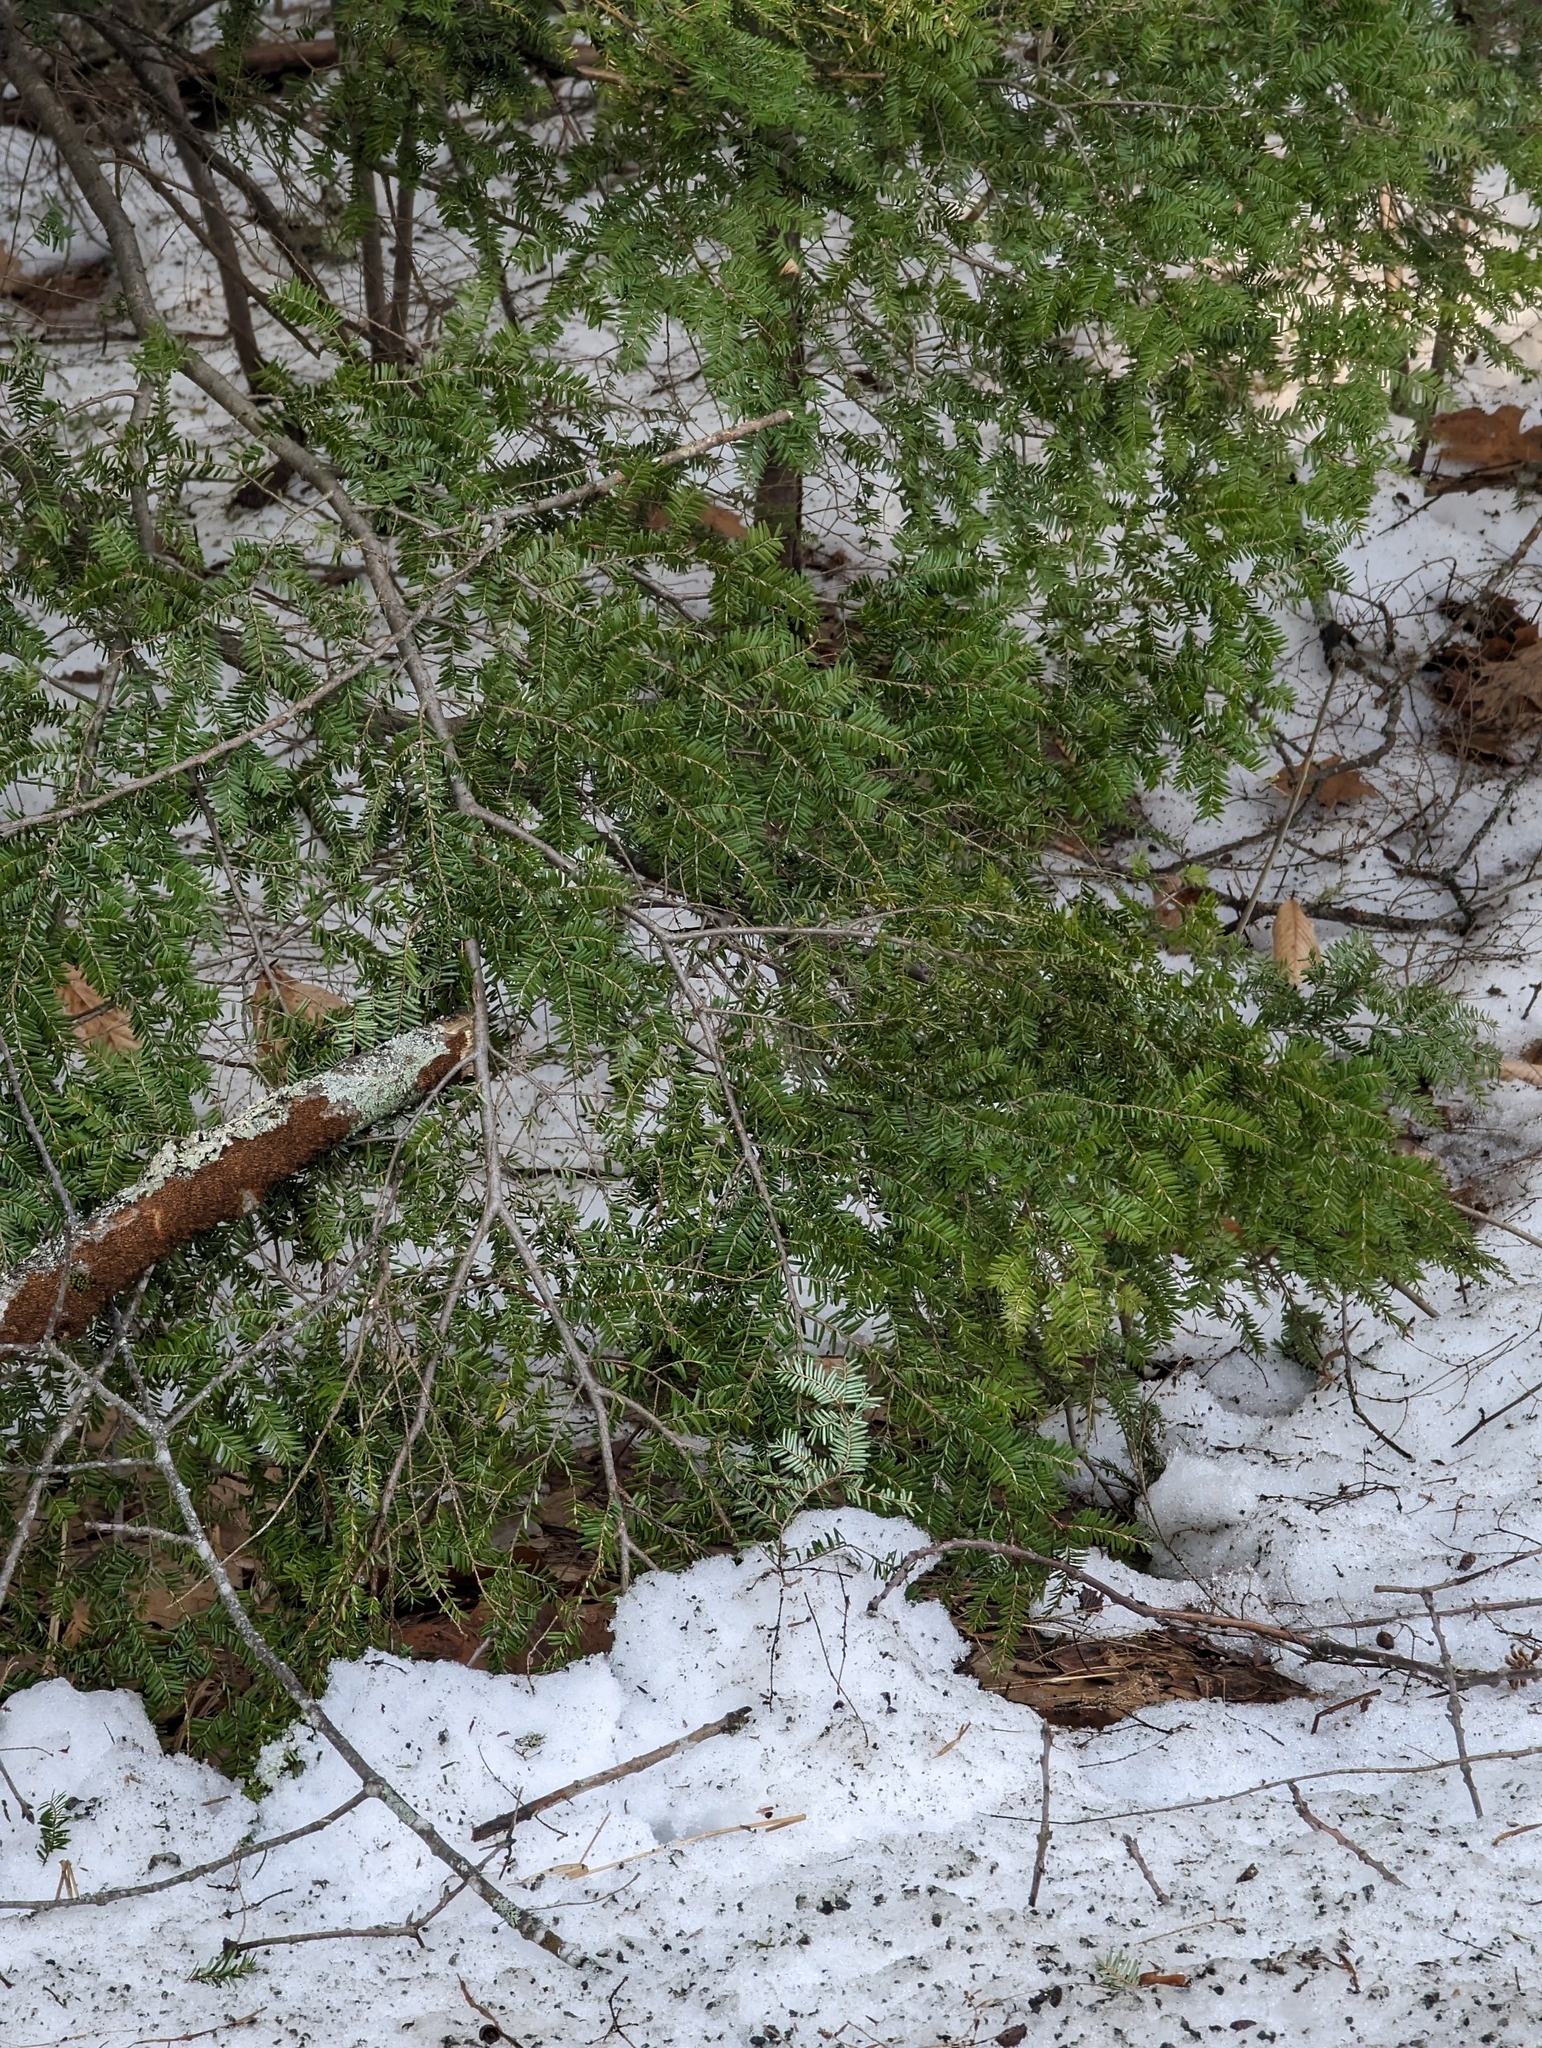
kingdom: Plantae
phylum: Tracheophyta
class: Pinopsida
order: Pinales
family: Pinaceae
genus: Tsuga
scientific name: Tsuga canadensis
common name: Eastern hemlock
